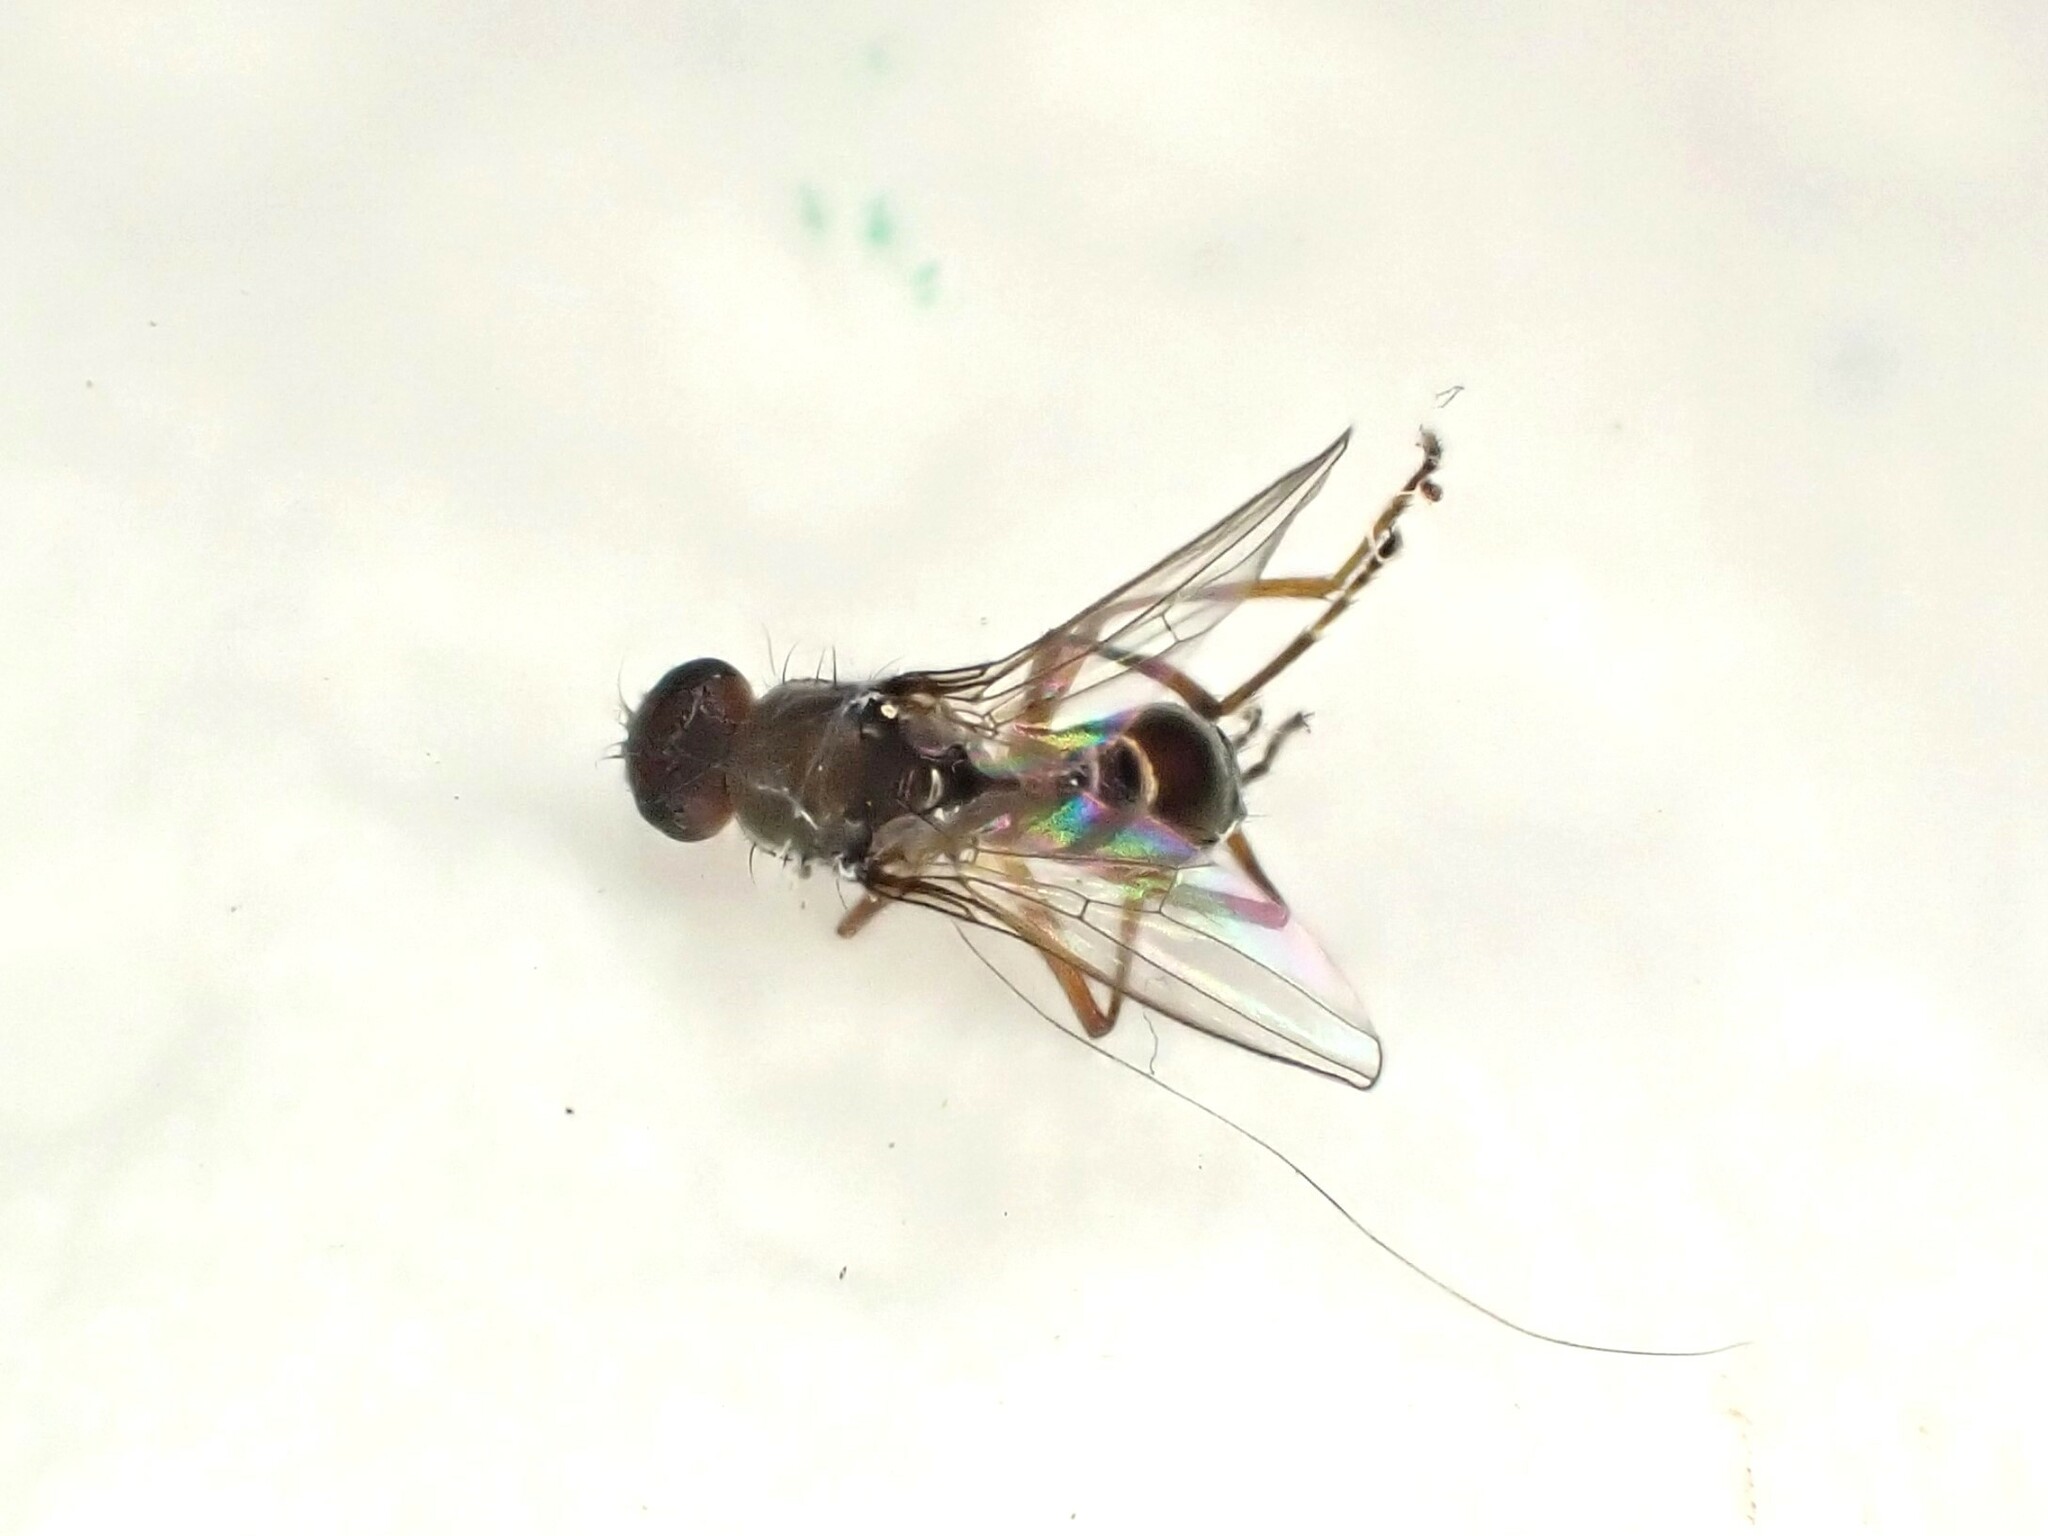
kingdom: Animalia
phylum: Arthropoda
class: Insecta
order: Diptera
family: Sepsidae
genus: Lasionemopoda
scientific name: Lasionemopoda hirsuta
